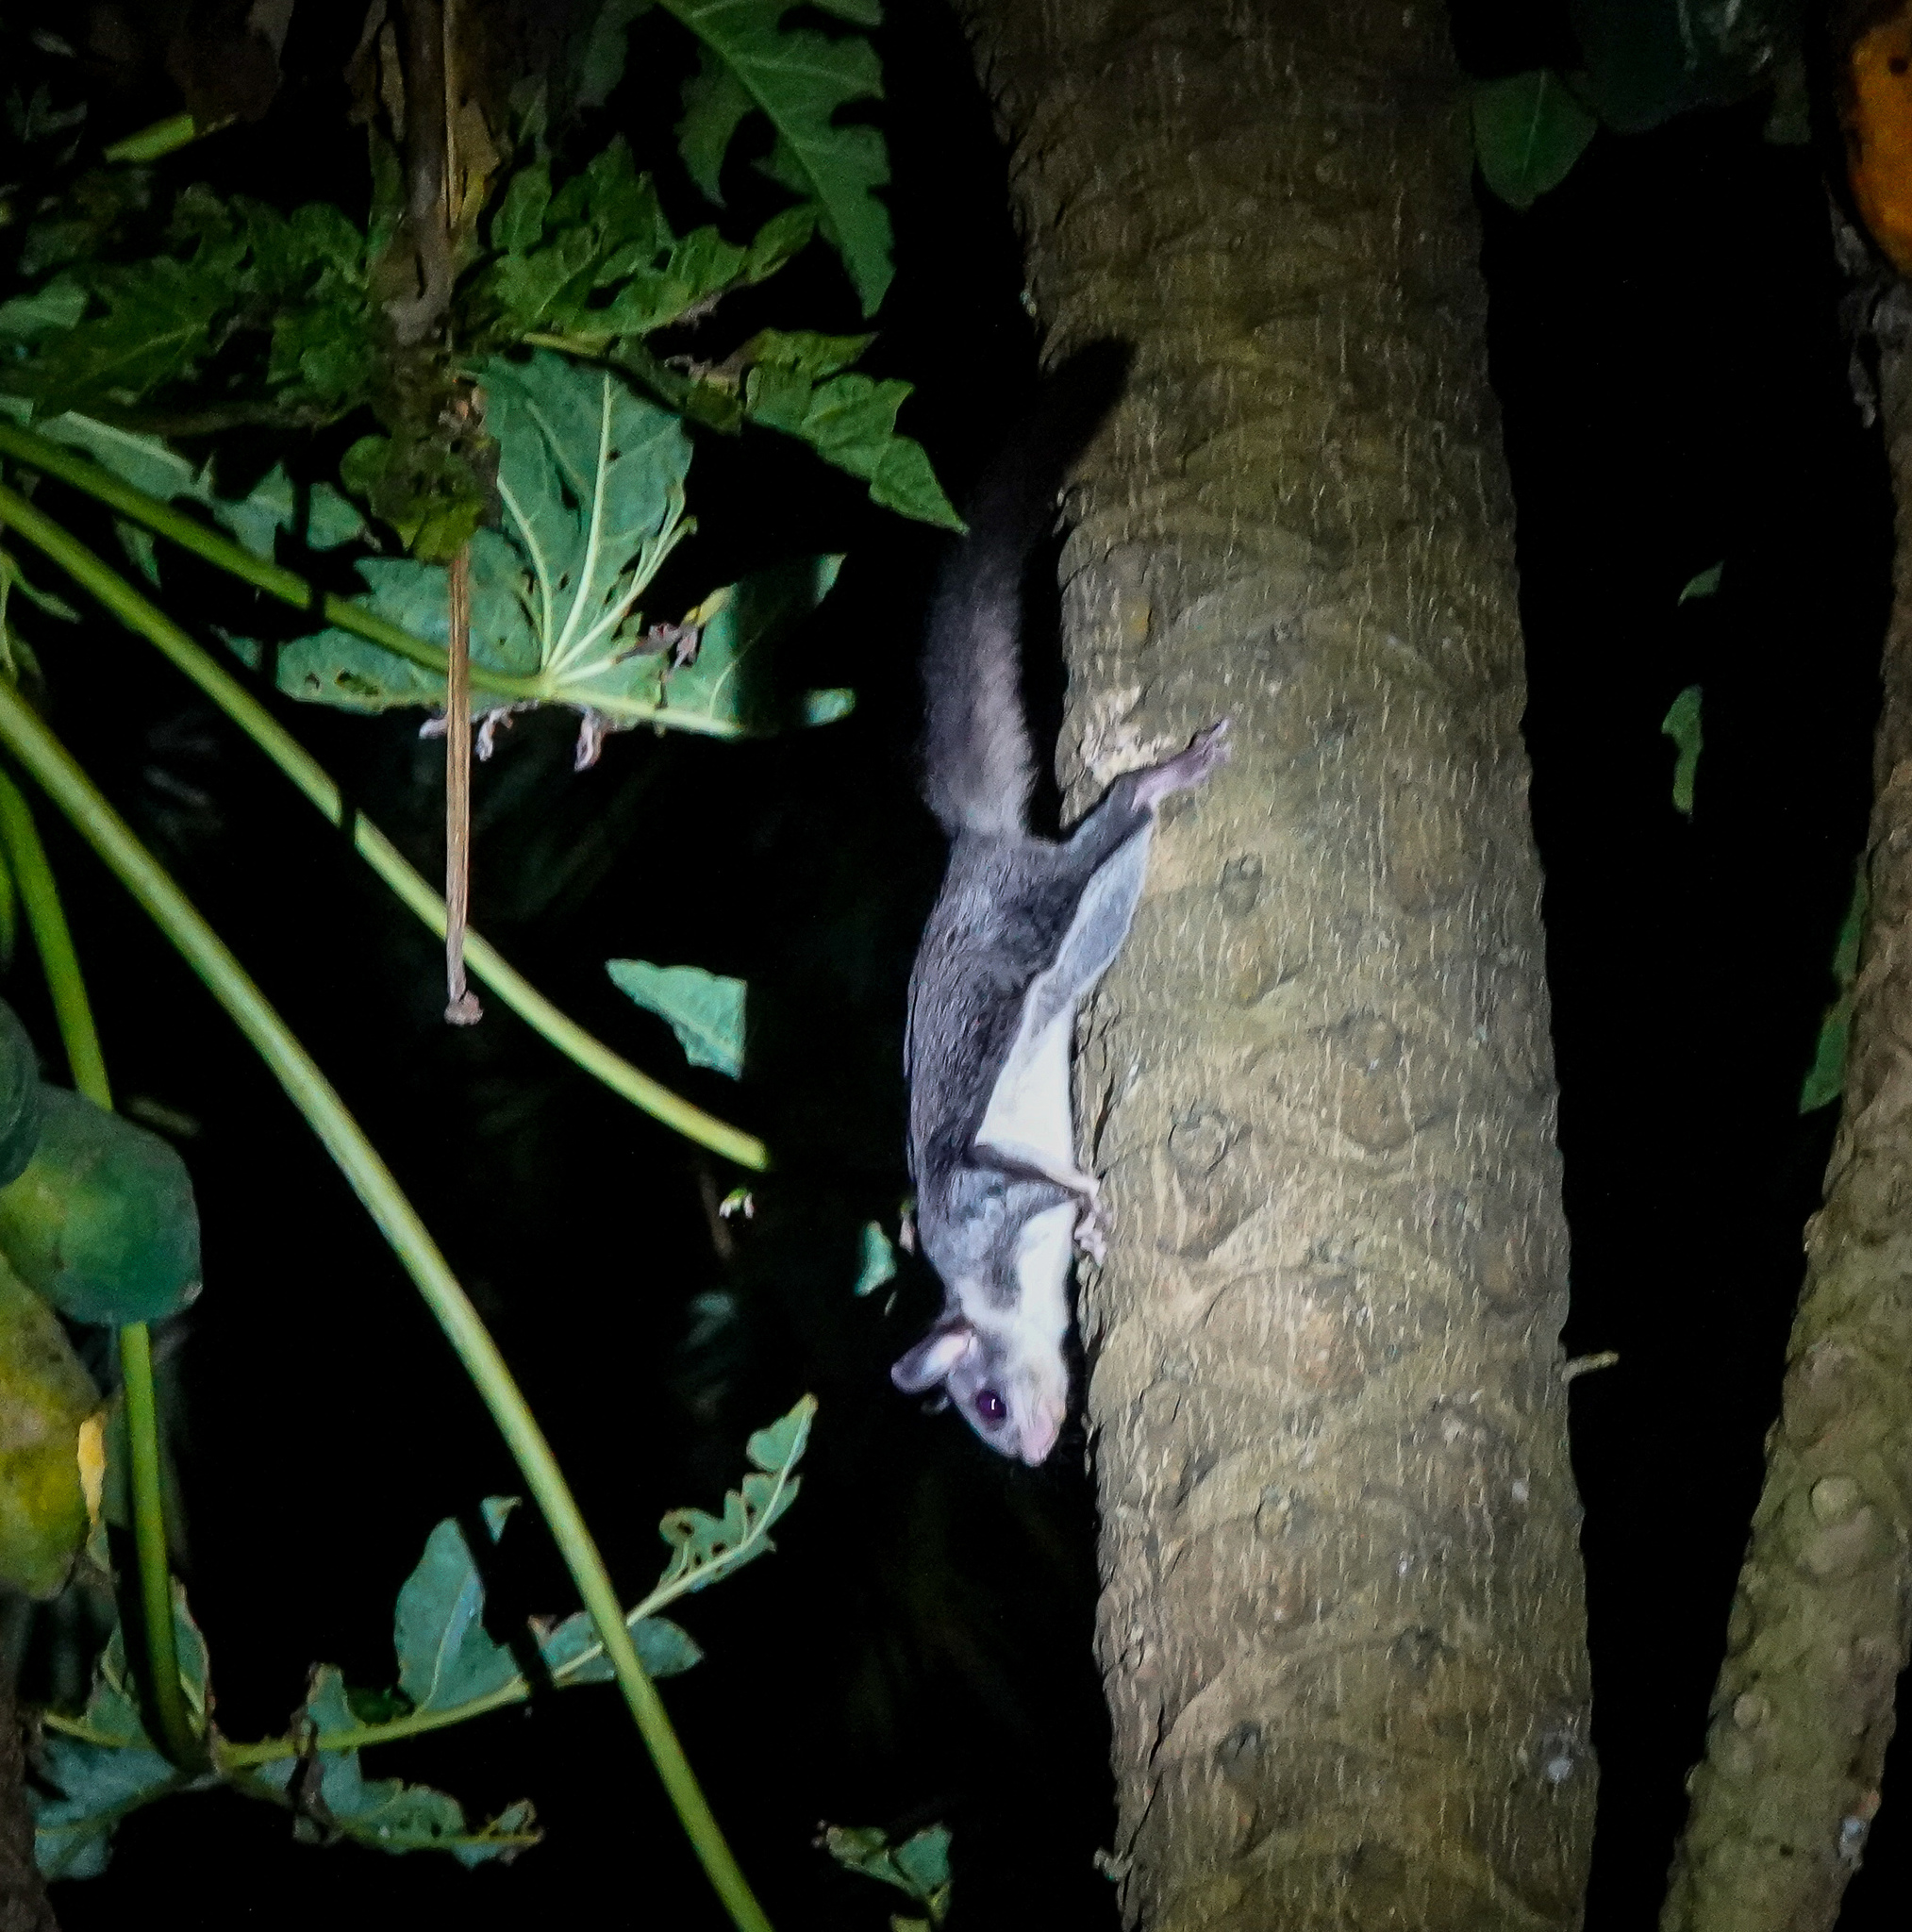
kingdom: Animalia
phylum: Chordata
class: Mammalia
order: Rodentia
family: Sciuridae
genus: Hylopetes
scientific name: Hylopetes alboniger
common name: Particolored flying squirrel
